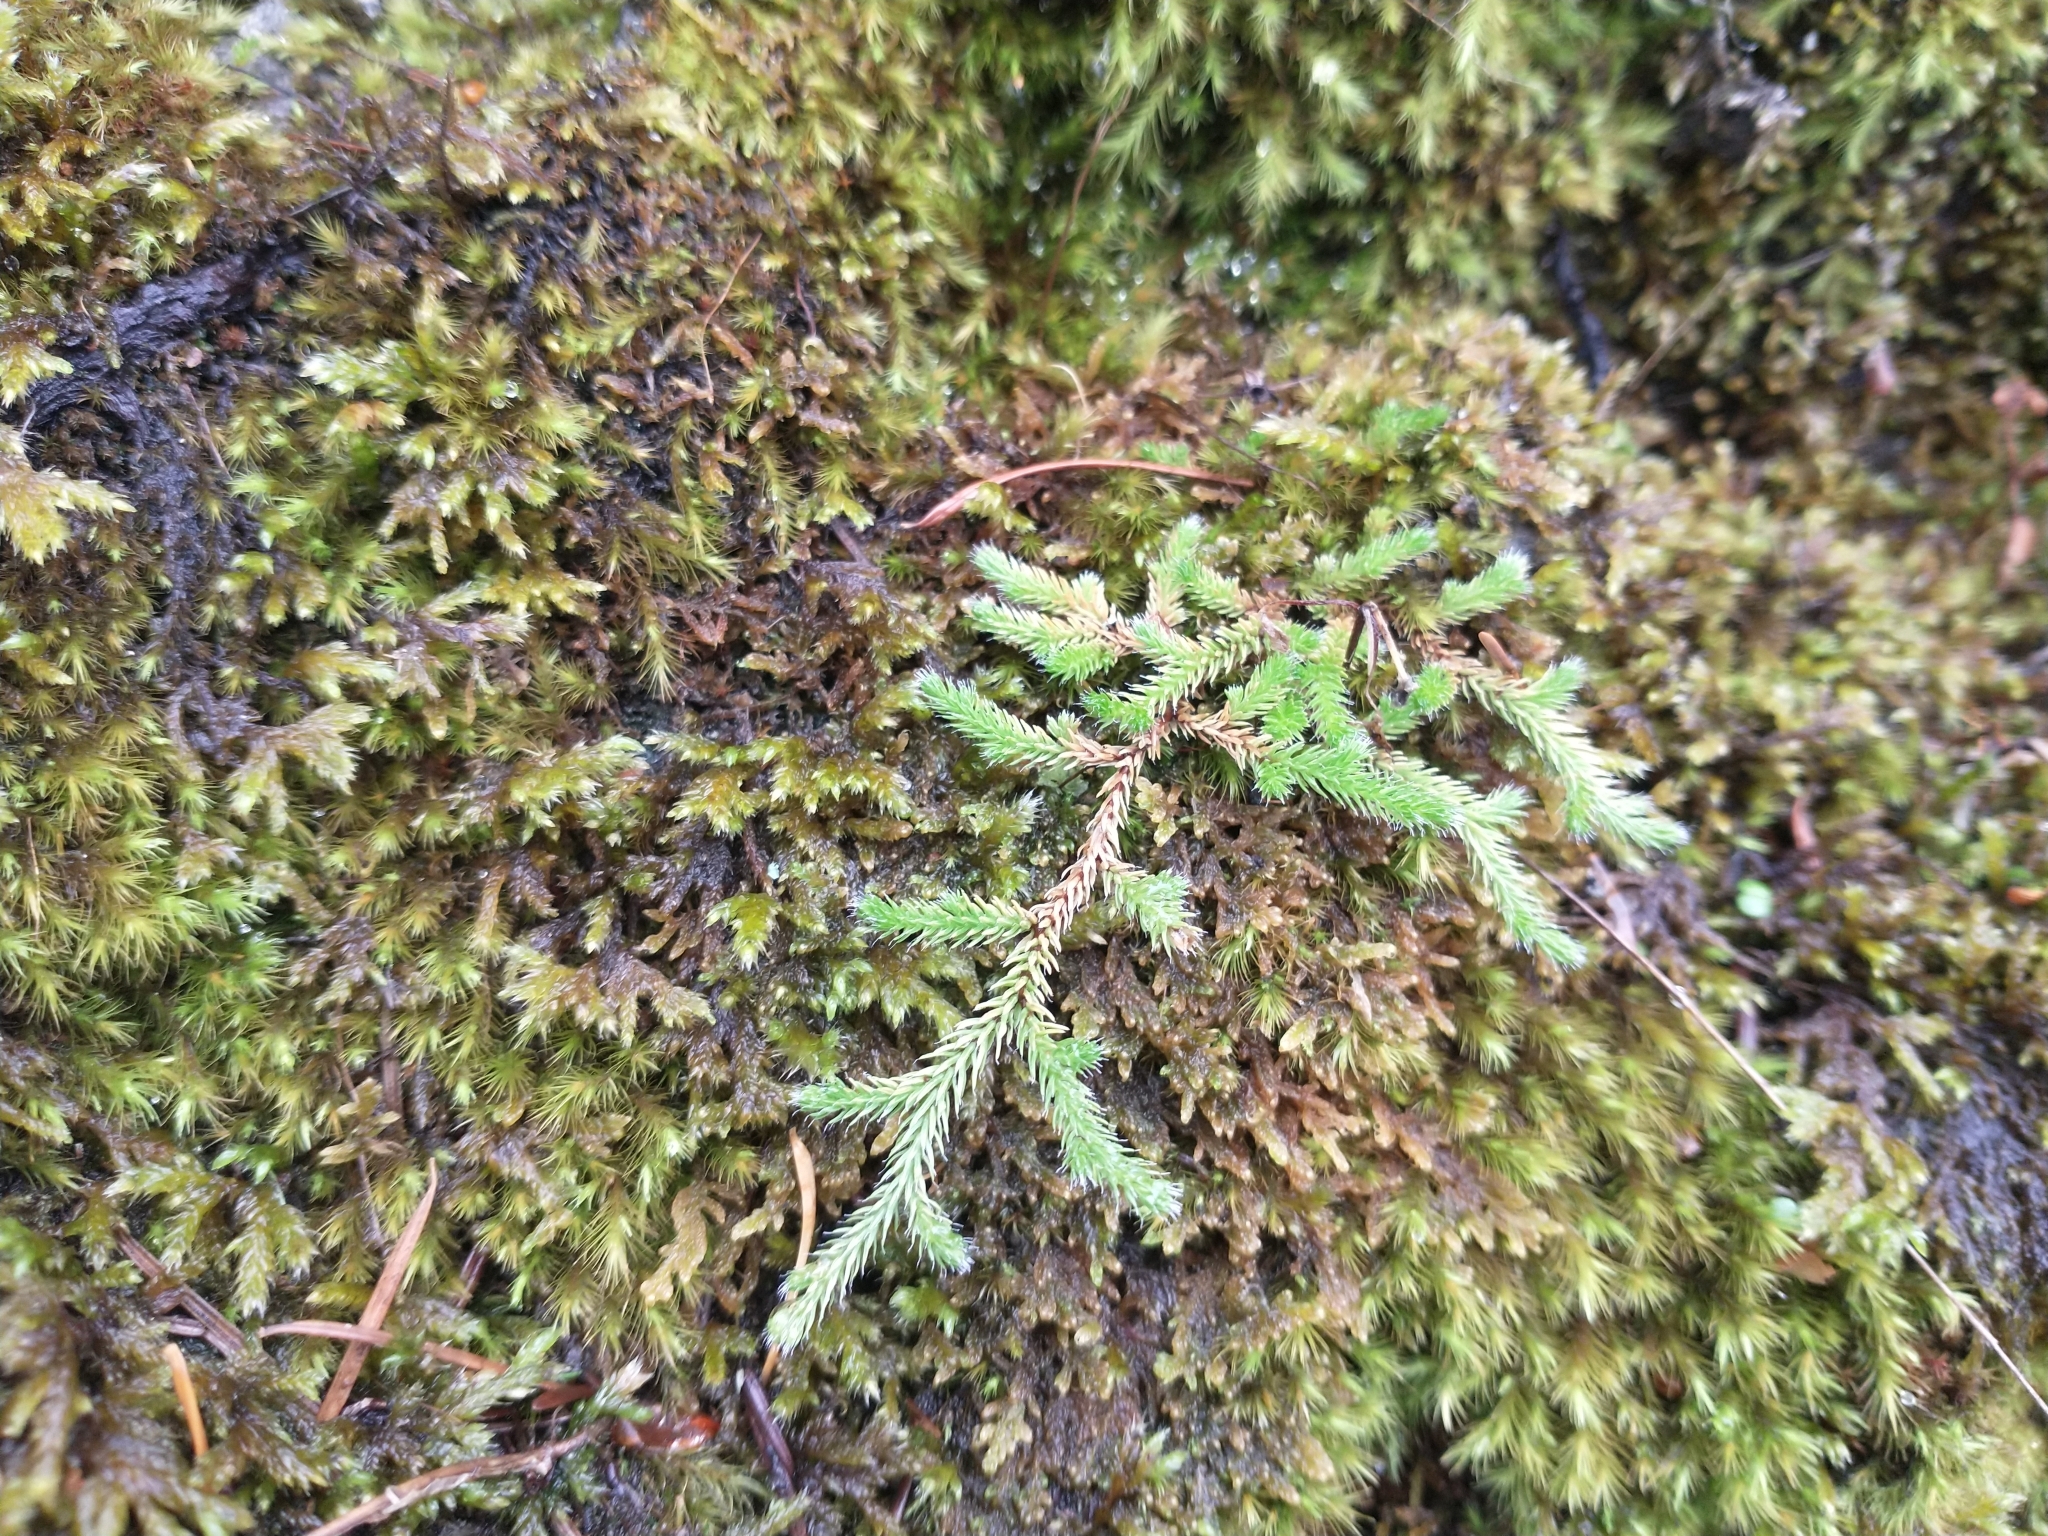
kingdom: Plantae
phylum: Tracheophyta
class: Lycopodiopsida
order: Selaginellales
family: Selaginellaceae
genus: Selaginella
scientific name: Selaginella wallacei
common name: Wallace's selaginella
